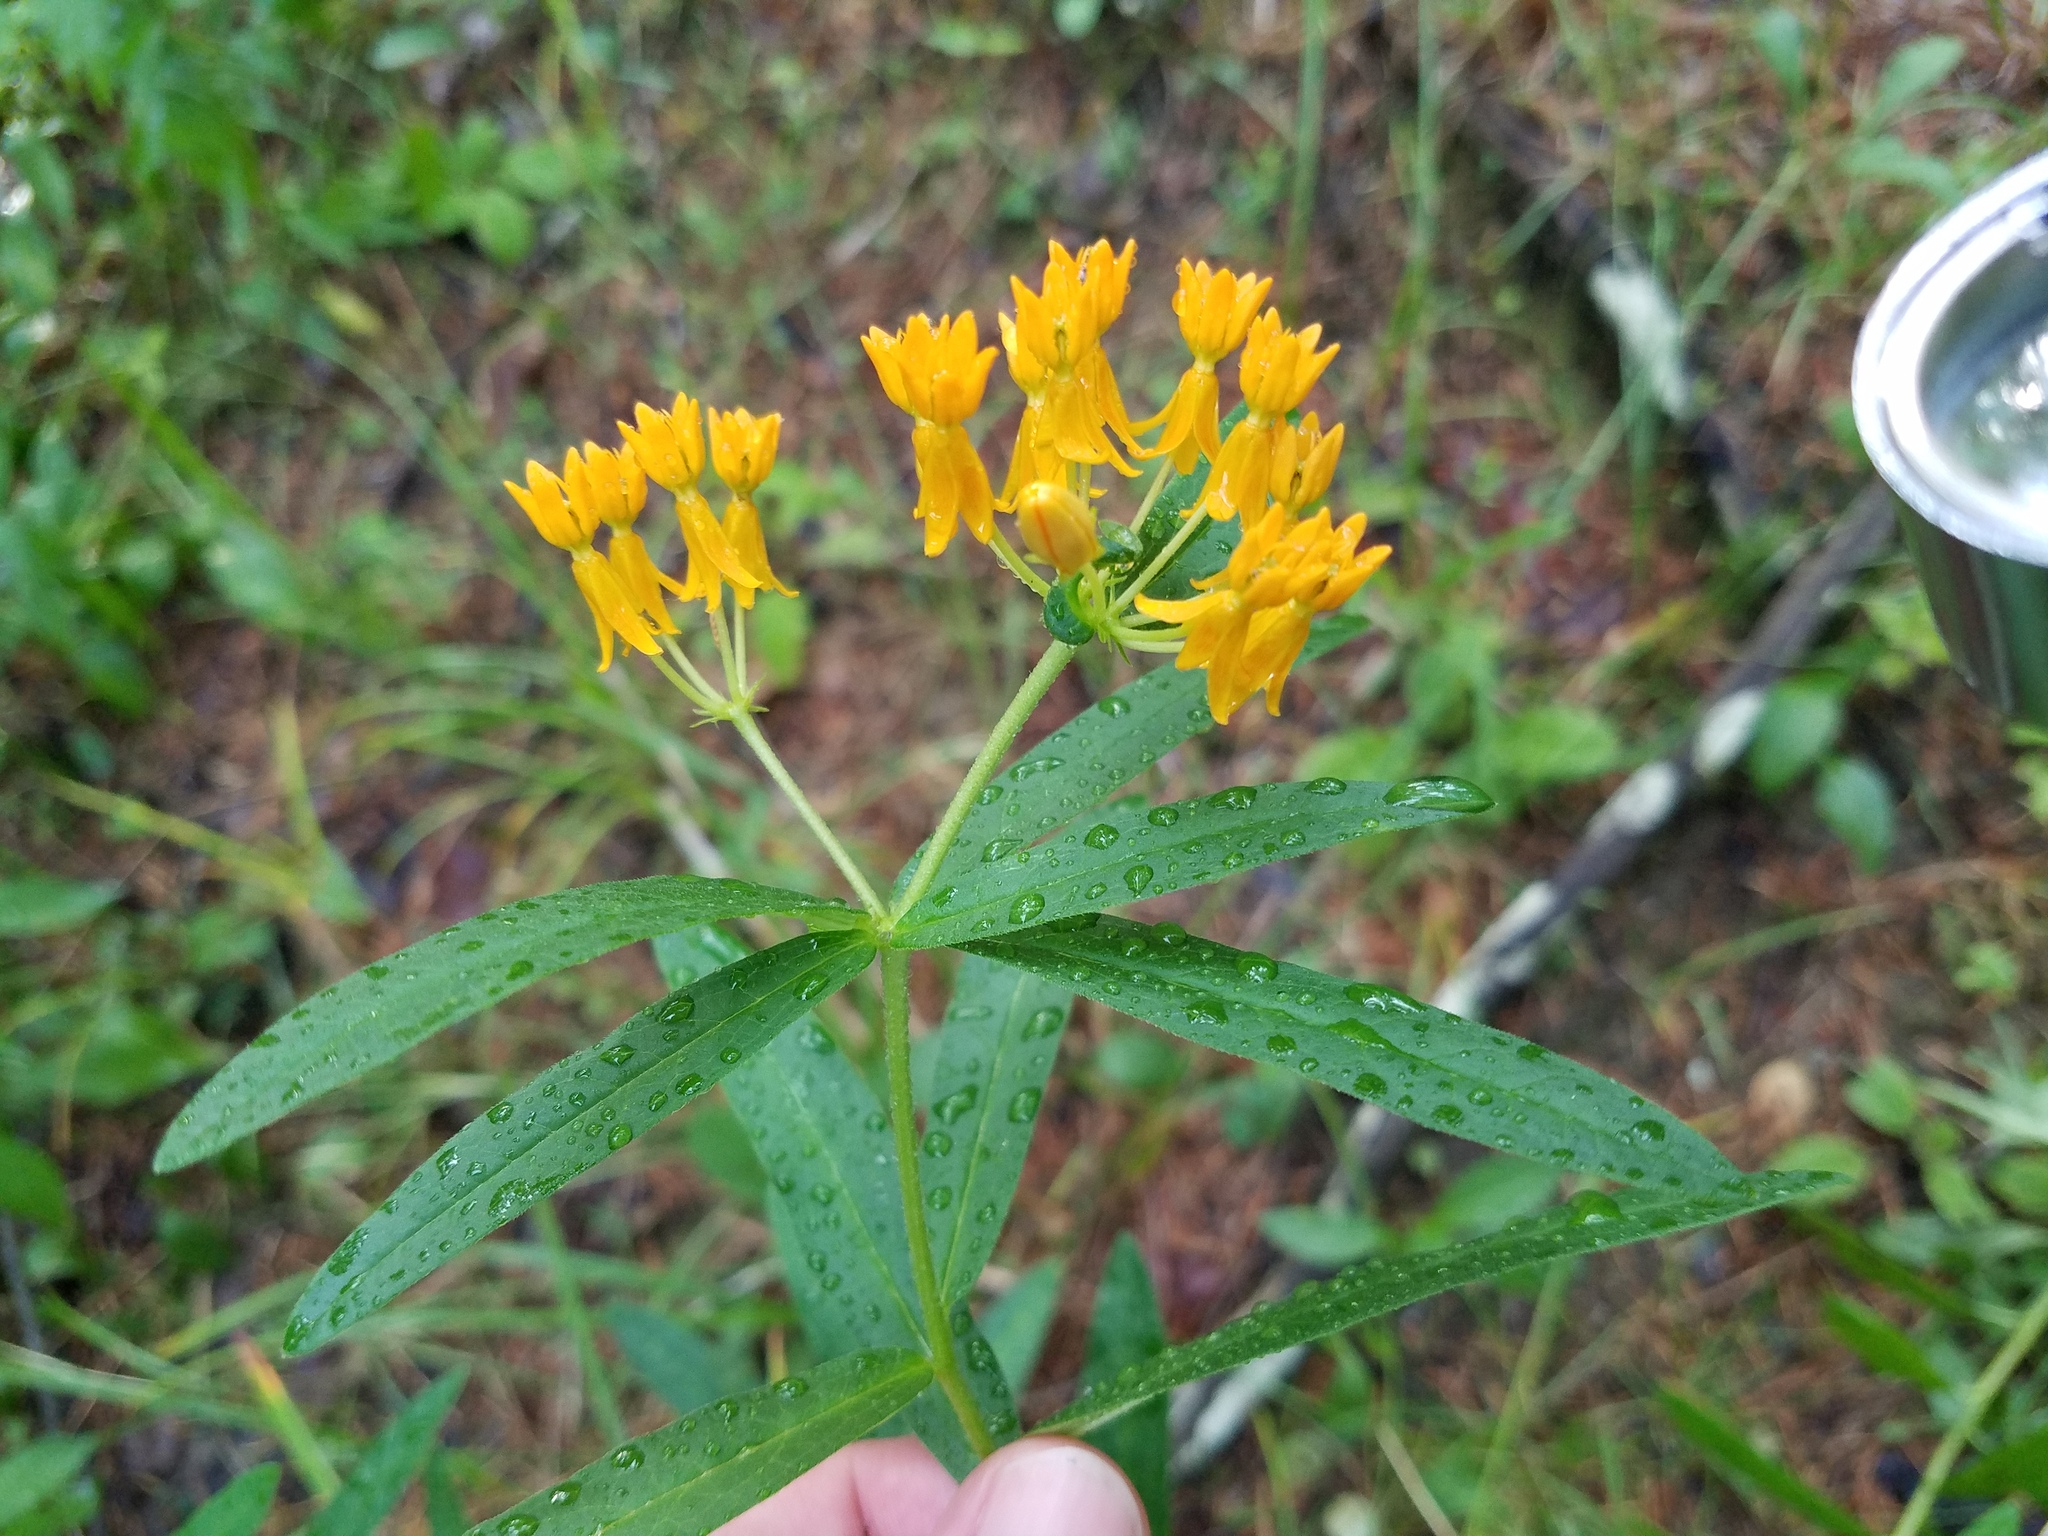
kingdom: Plantae
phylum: Tracheophyta
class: Magnoliopsida
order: Gentianales
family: Apocynaceae
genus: Asclepias
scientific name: Asclepias tuberosa
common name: Butterfly milkweed
